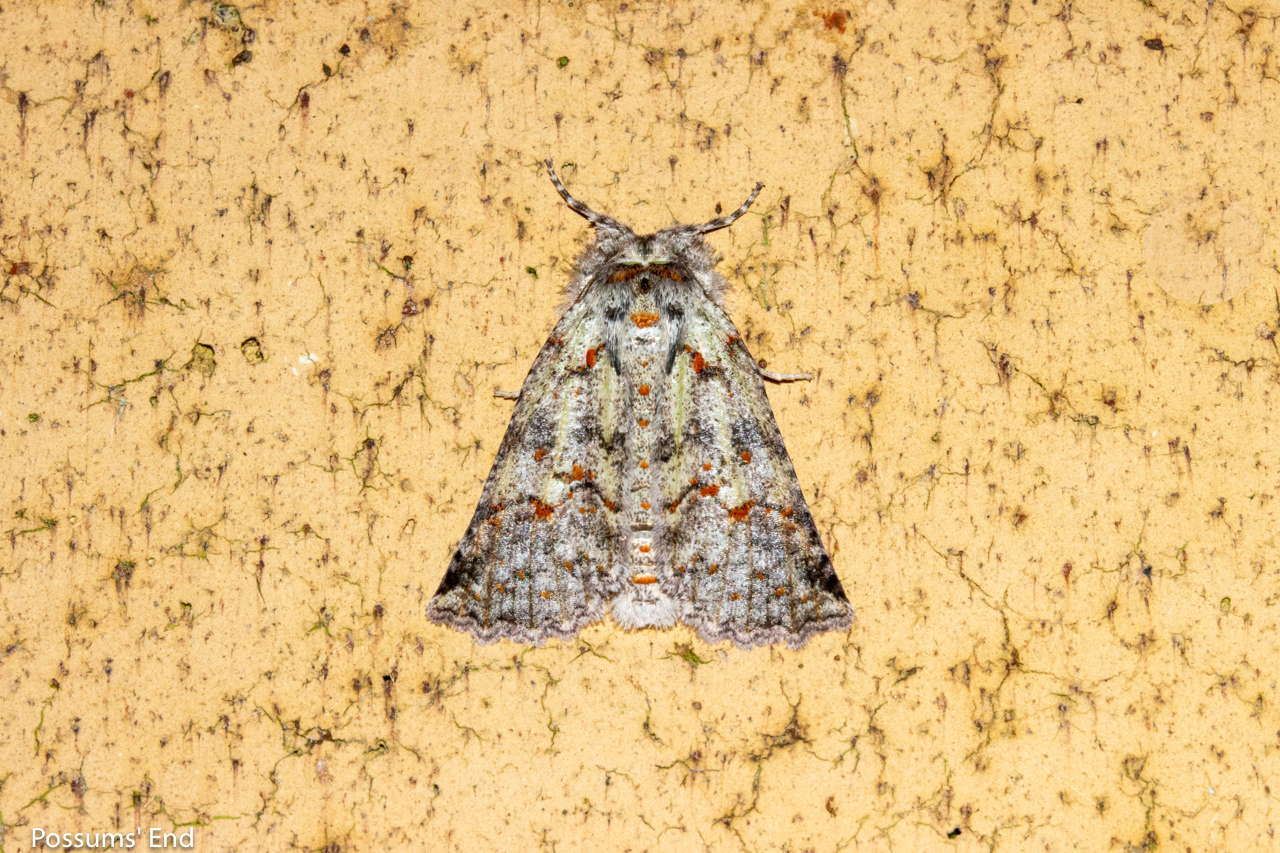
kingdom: Animalia
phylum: Arthropoda
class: Insecta
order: Lepidoptera
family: Geometridae
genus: Declana
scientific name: Declana floccosa
